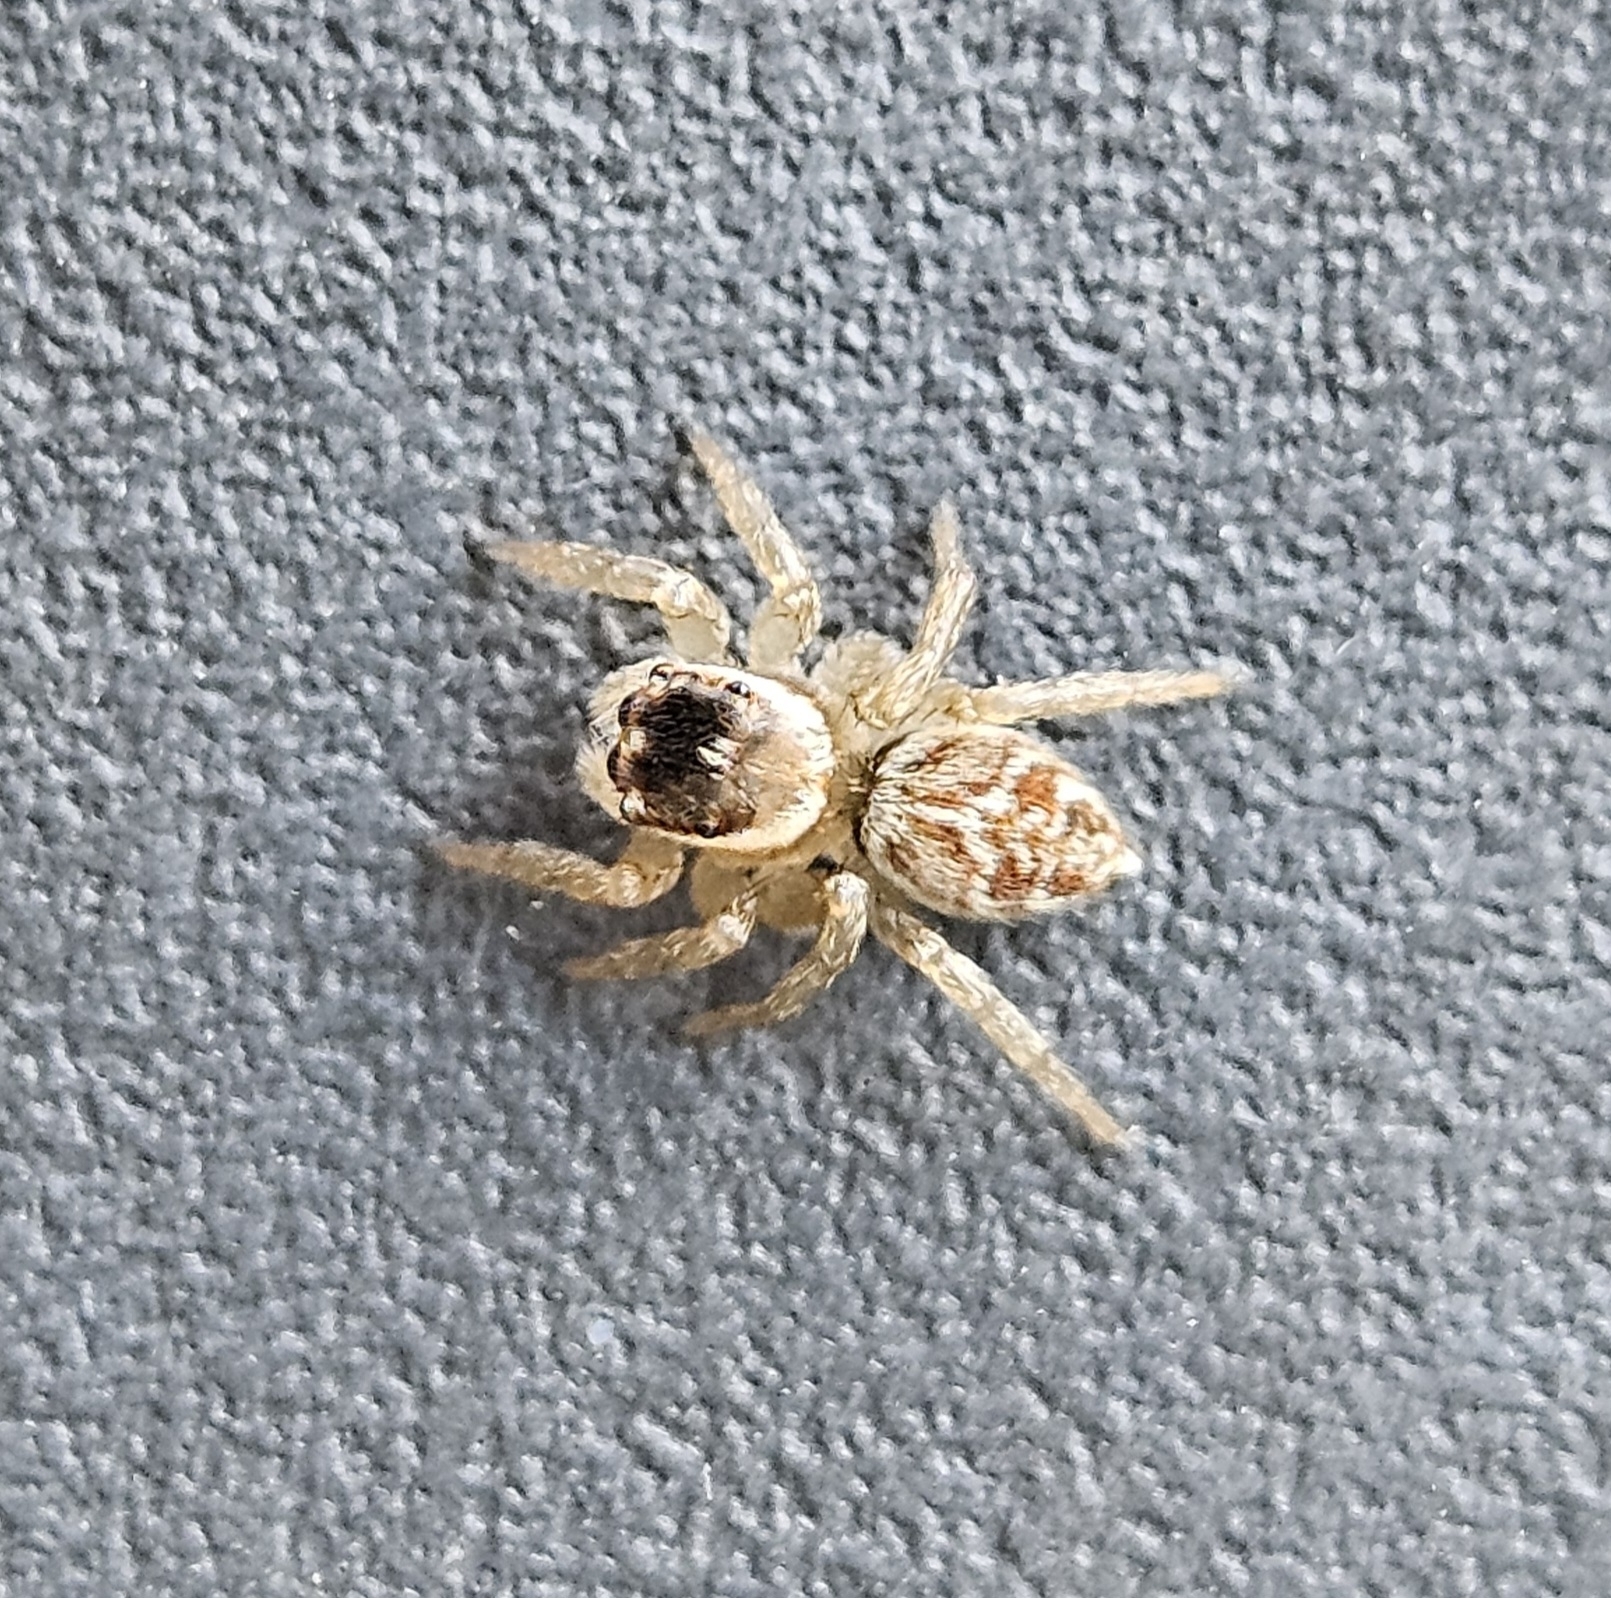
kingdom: Animalia
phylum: Arthropoda
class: Arachnida
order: Araneae
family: Salticidae
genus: Maratus
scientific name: Maratus griseus
